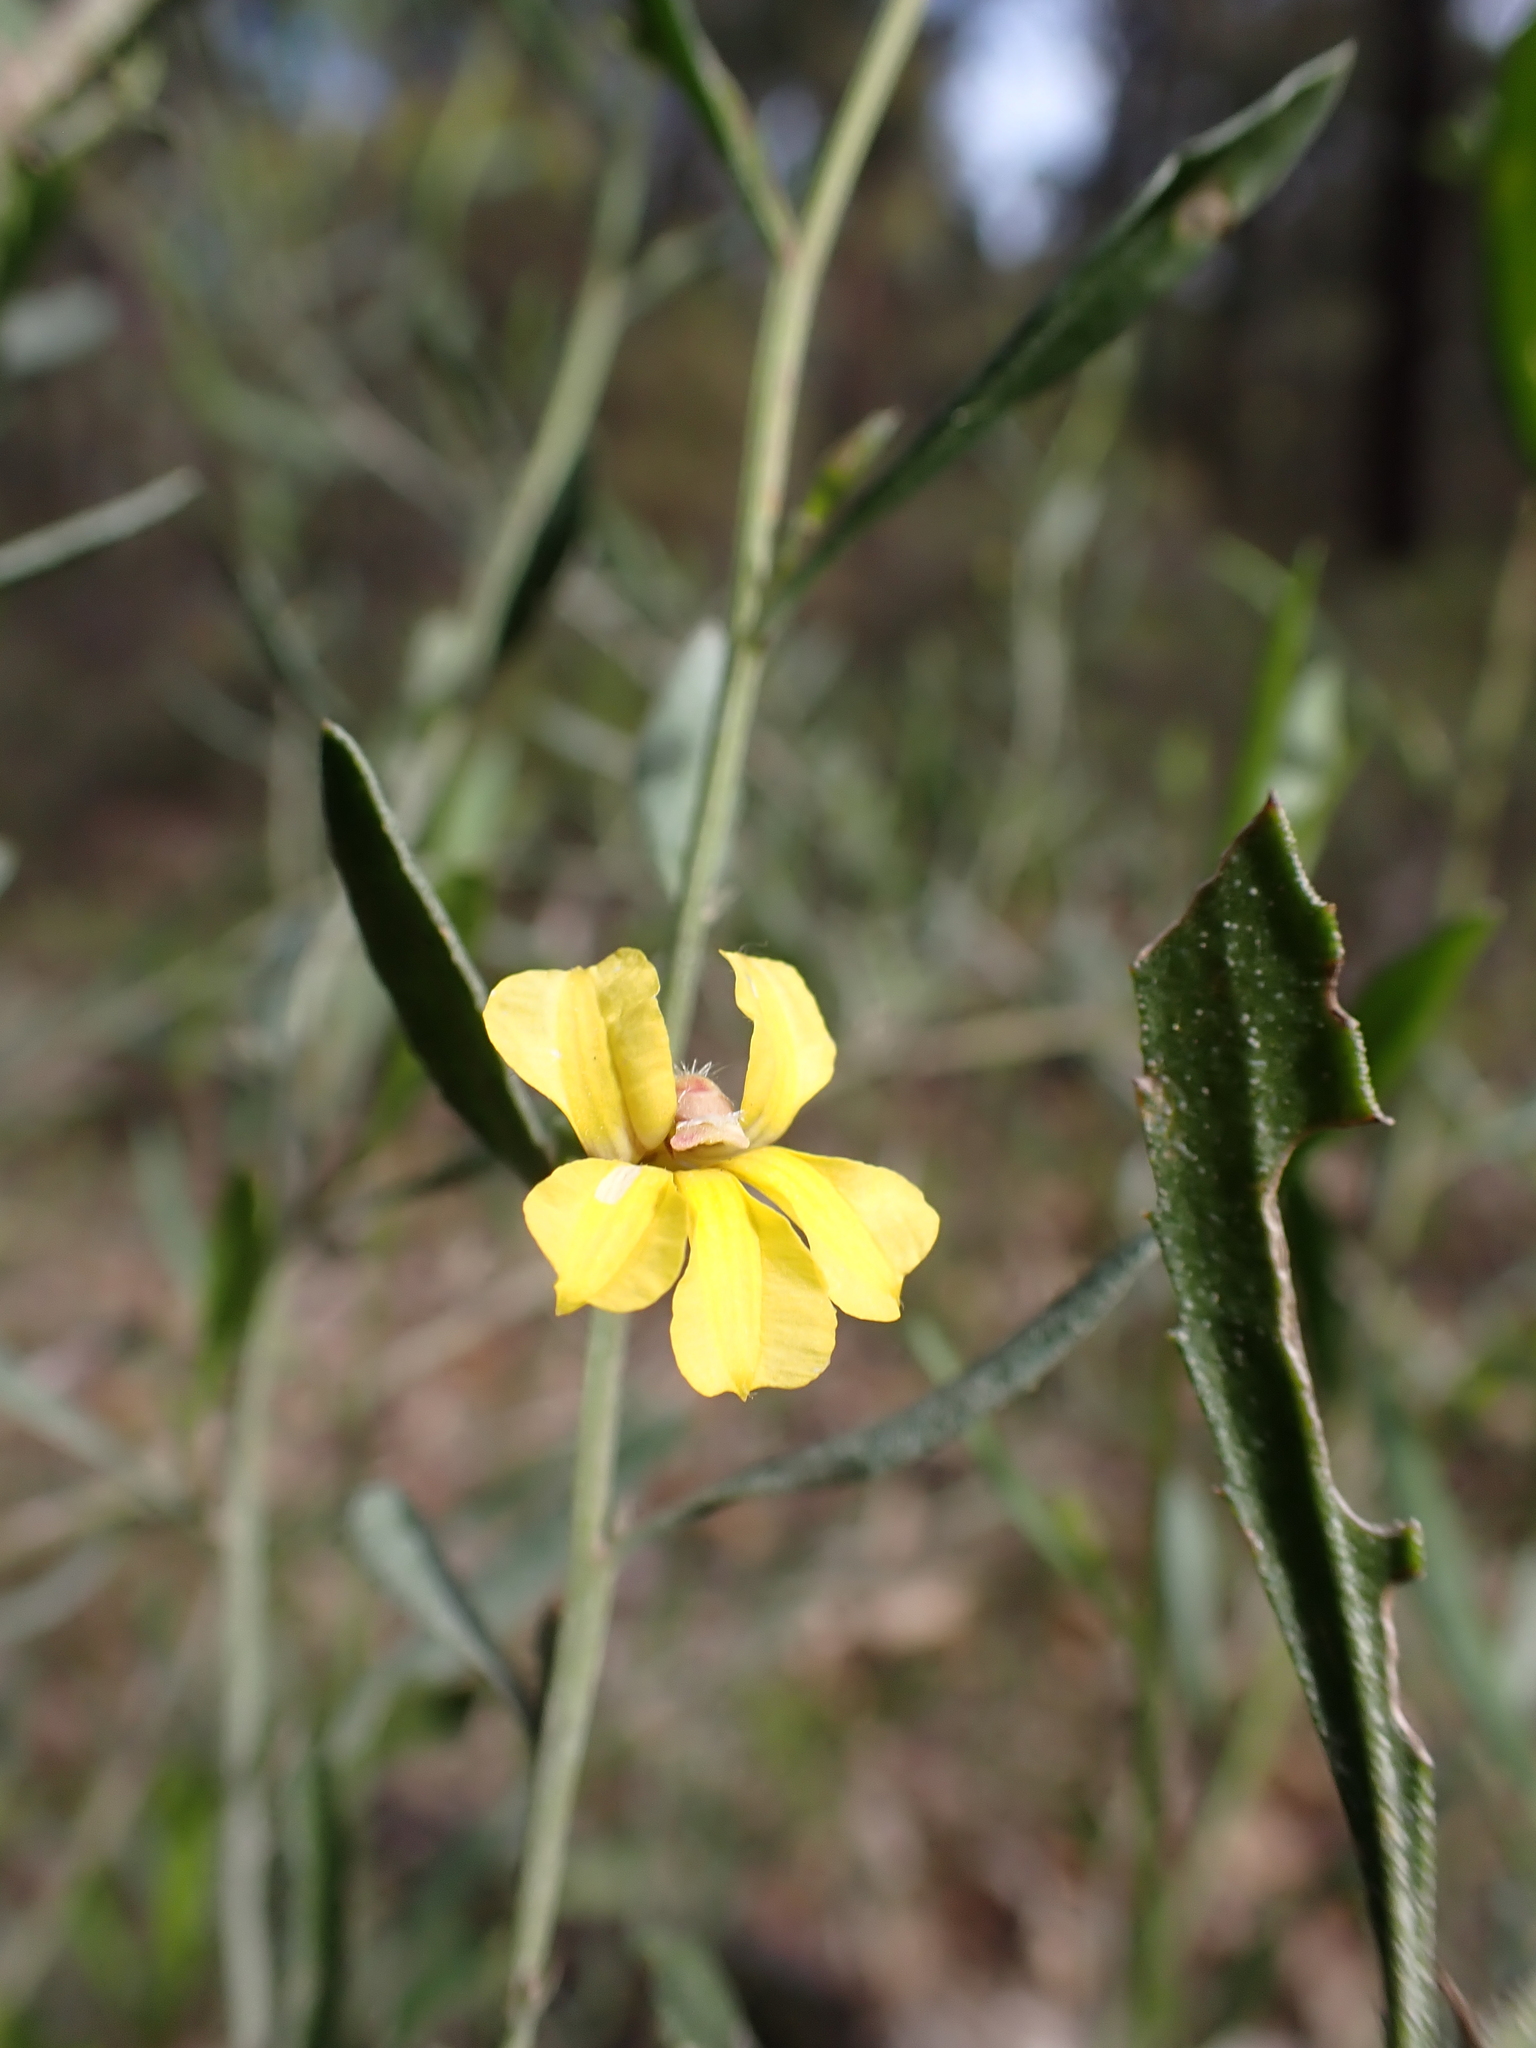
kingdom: Plantae
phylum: Tracheophyta
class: Magnoliopsida
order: Asterales
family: Goodeniaceae
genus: Goodenia
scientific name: Goodenia ovata
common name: Hop goodenia
